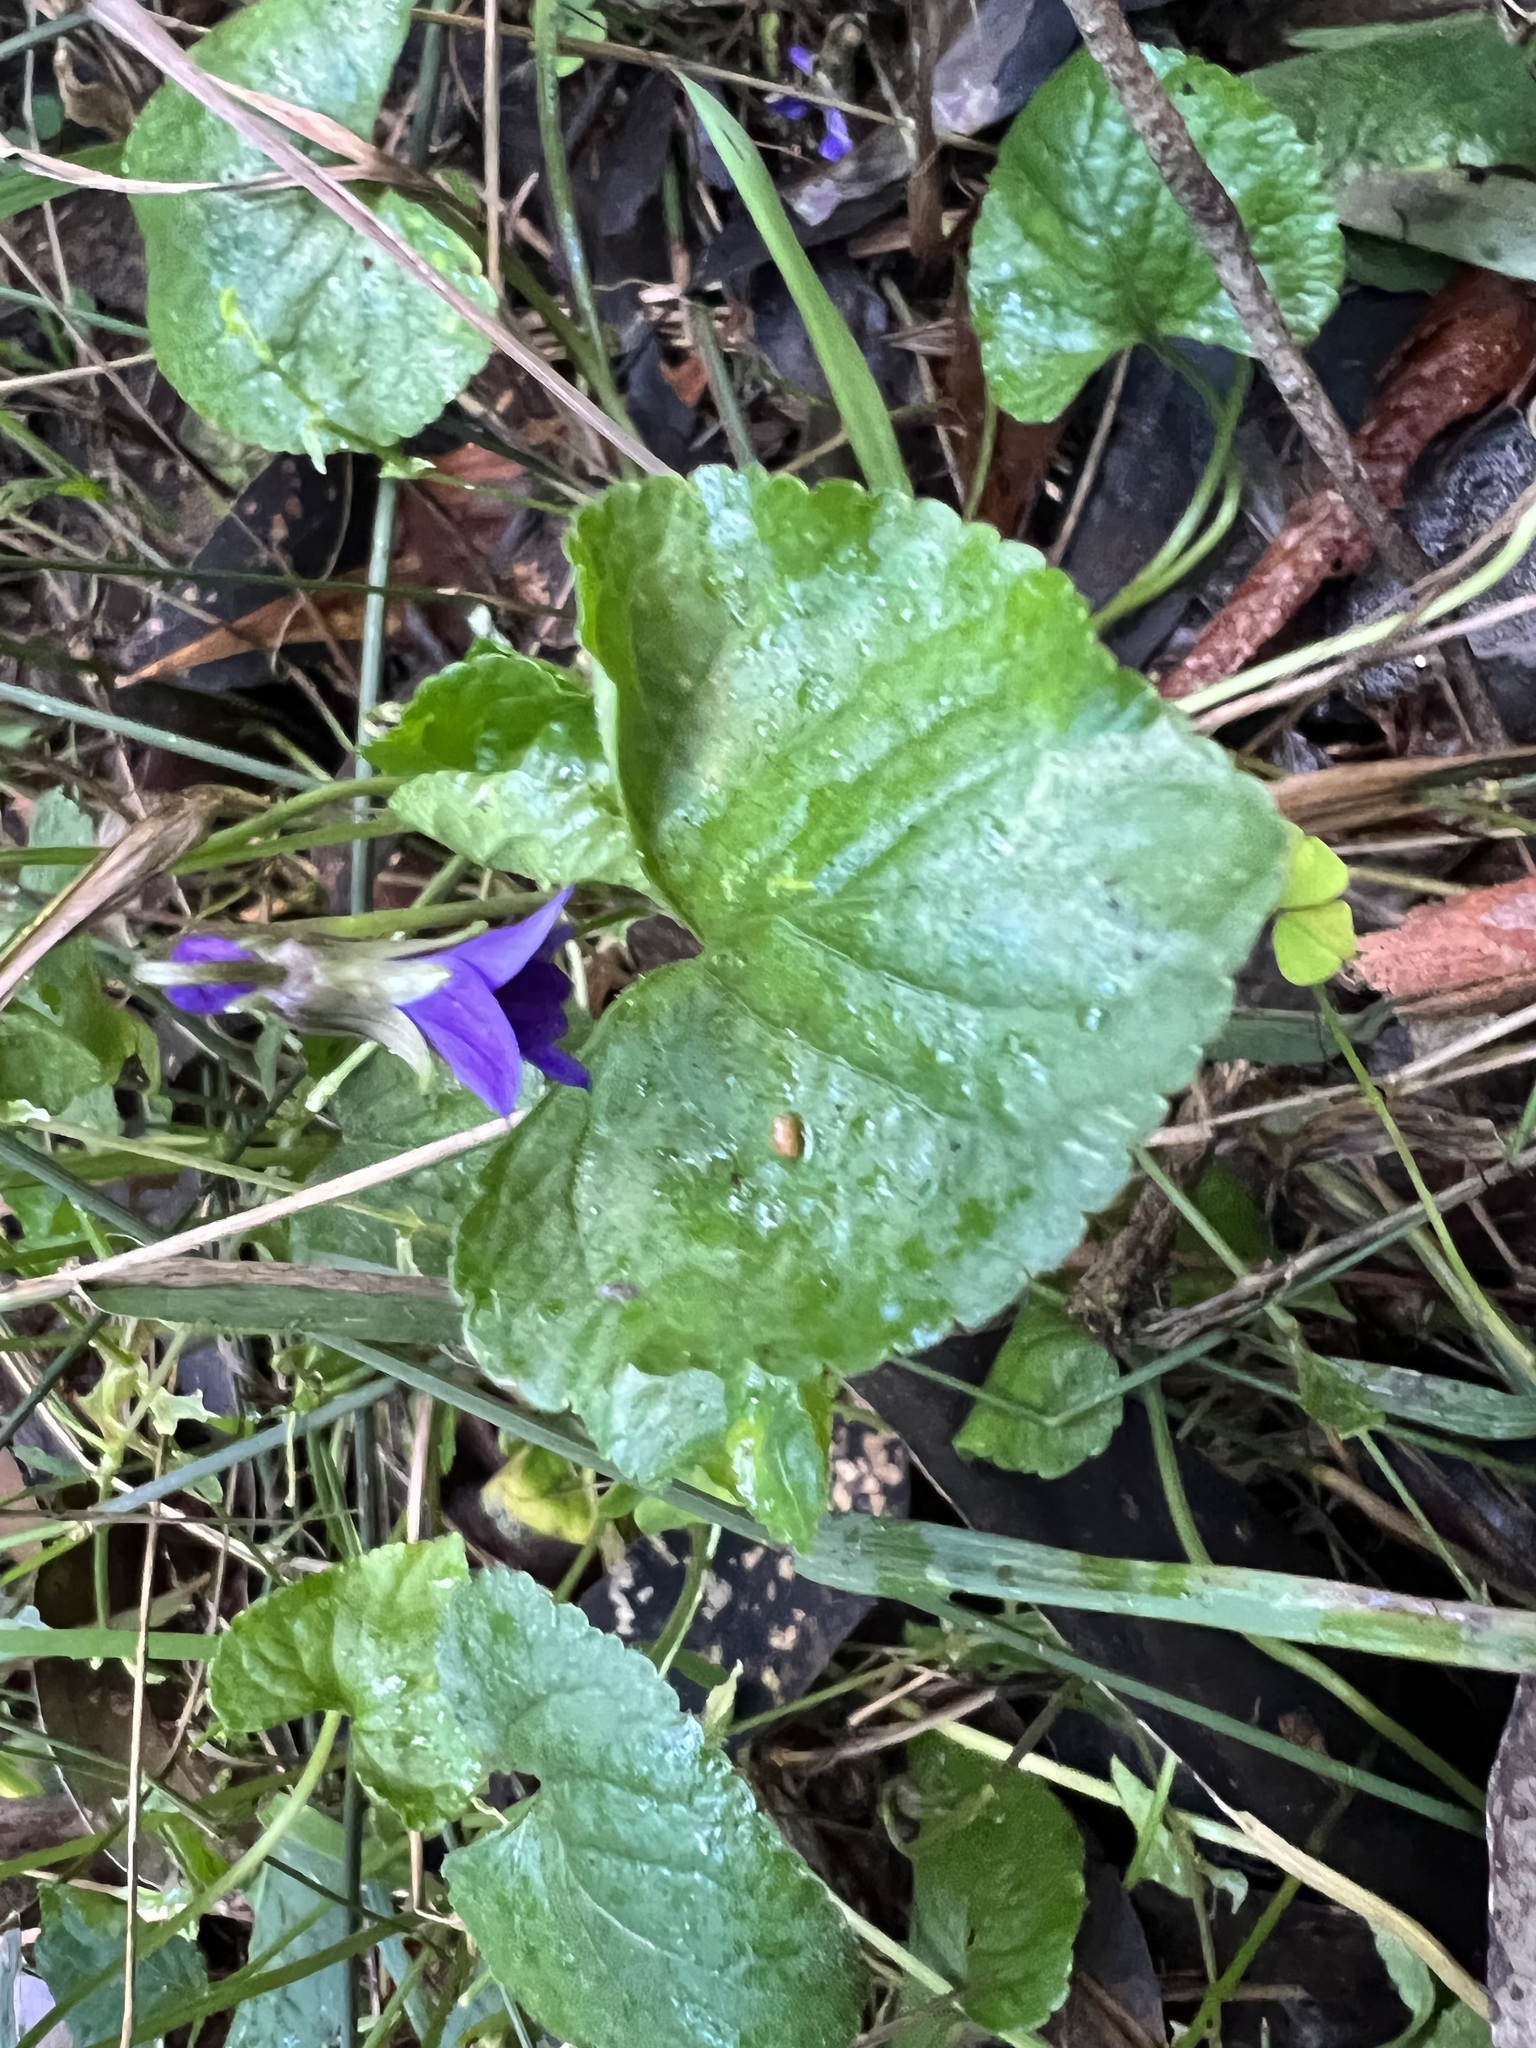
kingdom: Plantae
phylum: Tracheophyta
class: Magnoliopsida
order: Malpighiales
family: Violaceae
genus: Viola
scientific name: Viola odorata
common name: Sweet violet
